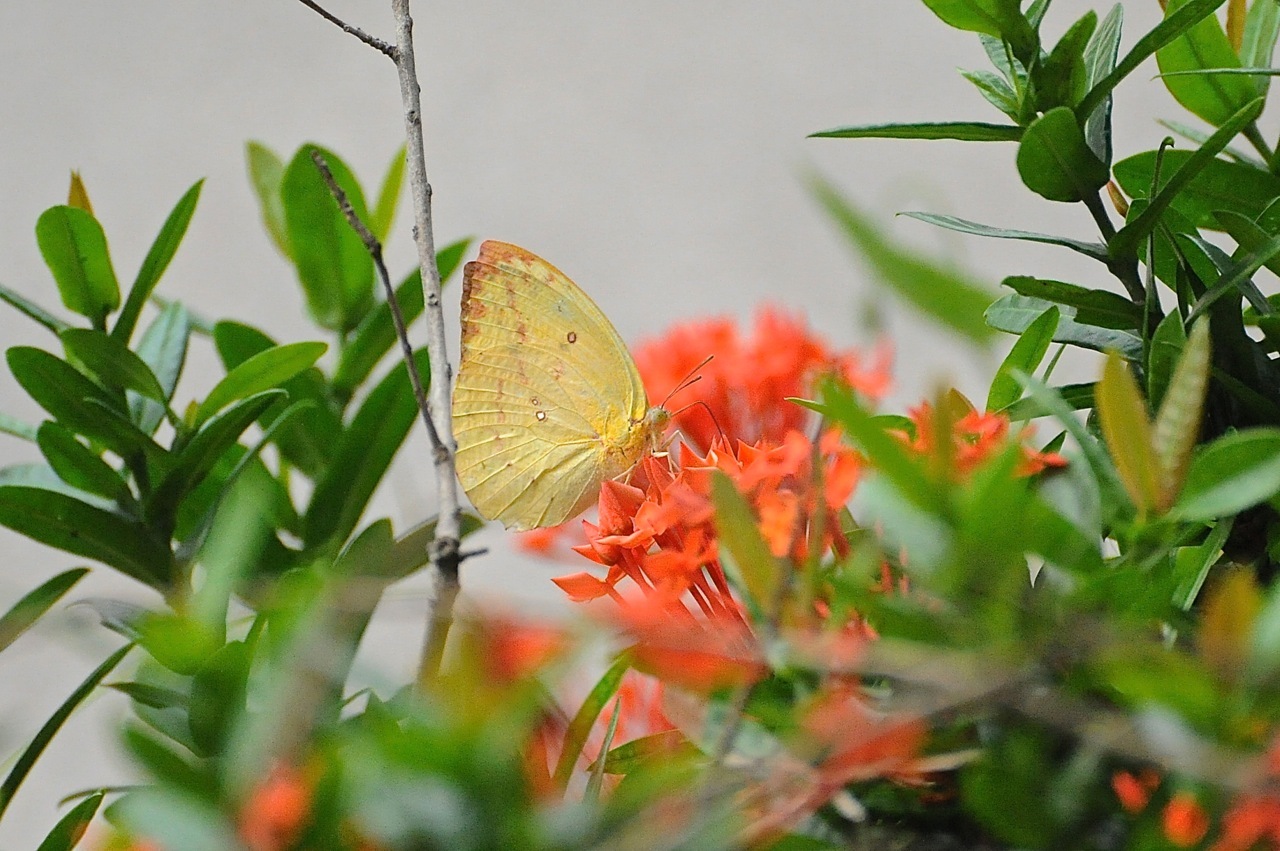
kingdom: Animalia
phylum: Arthropoda
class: Insecta
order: Lepidoptera
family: Pieridae
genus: Catopsilia
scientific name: Catopsilia pomona
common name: Common emigrant
